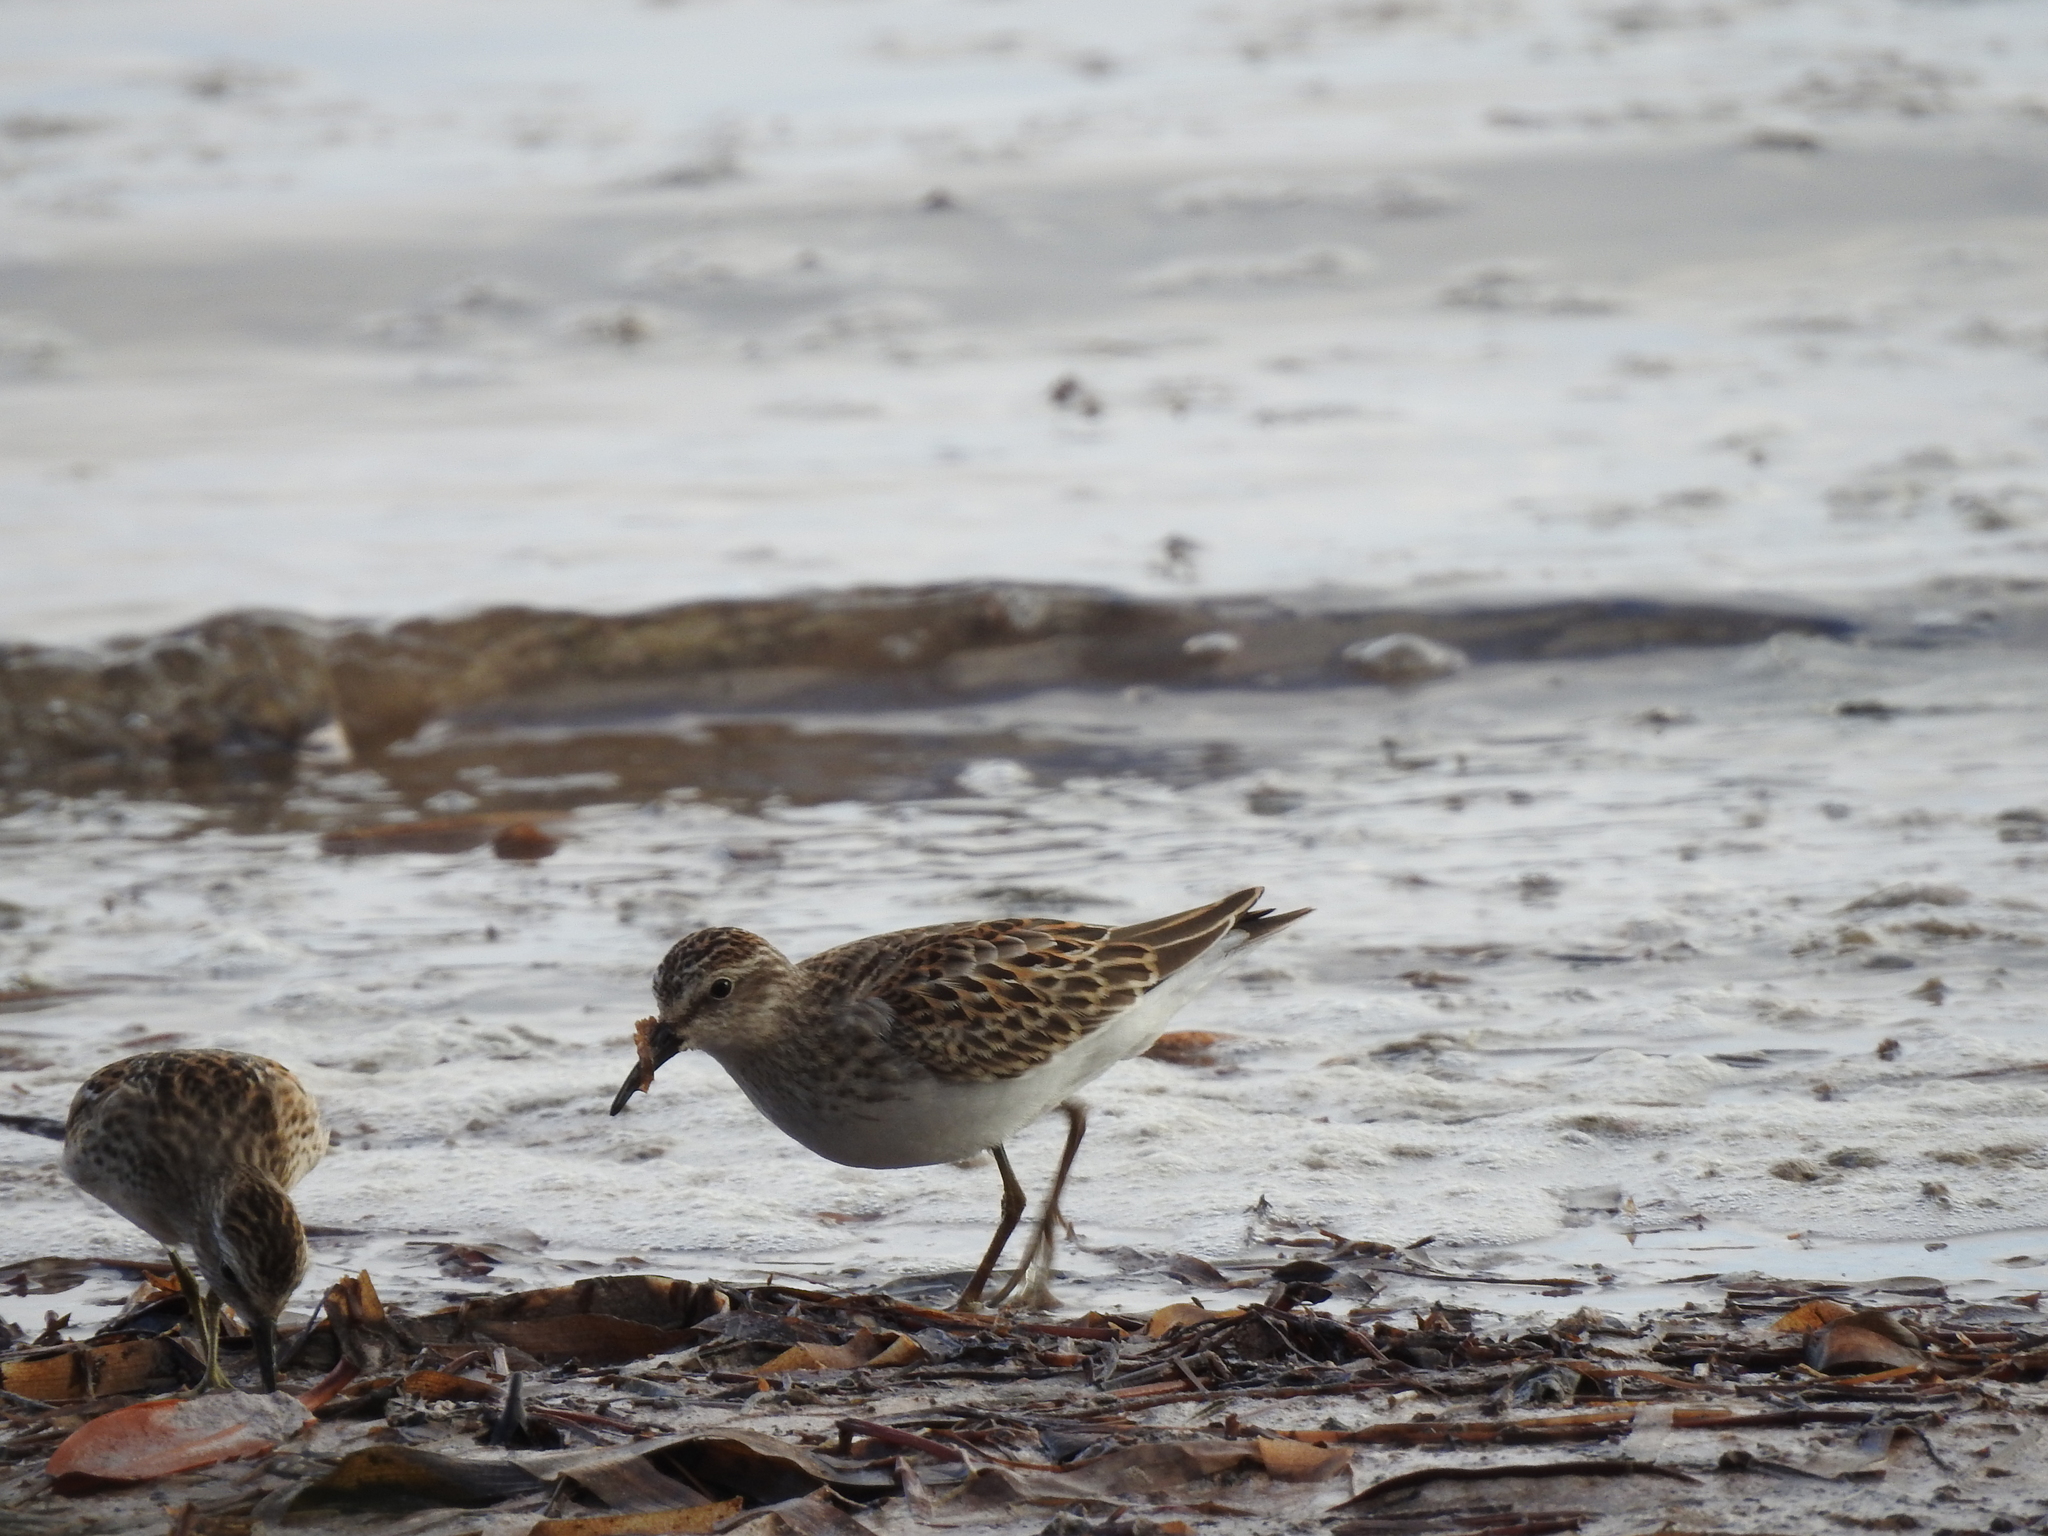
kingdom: Animalia
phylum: Chordata
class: Aves
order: Charadriiformes
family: Scolopacidae
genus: Calidris
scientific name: Calidris minutilla
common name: Least sandpiper
